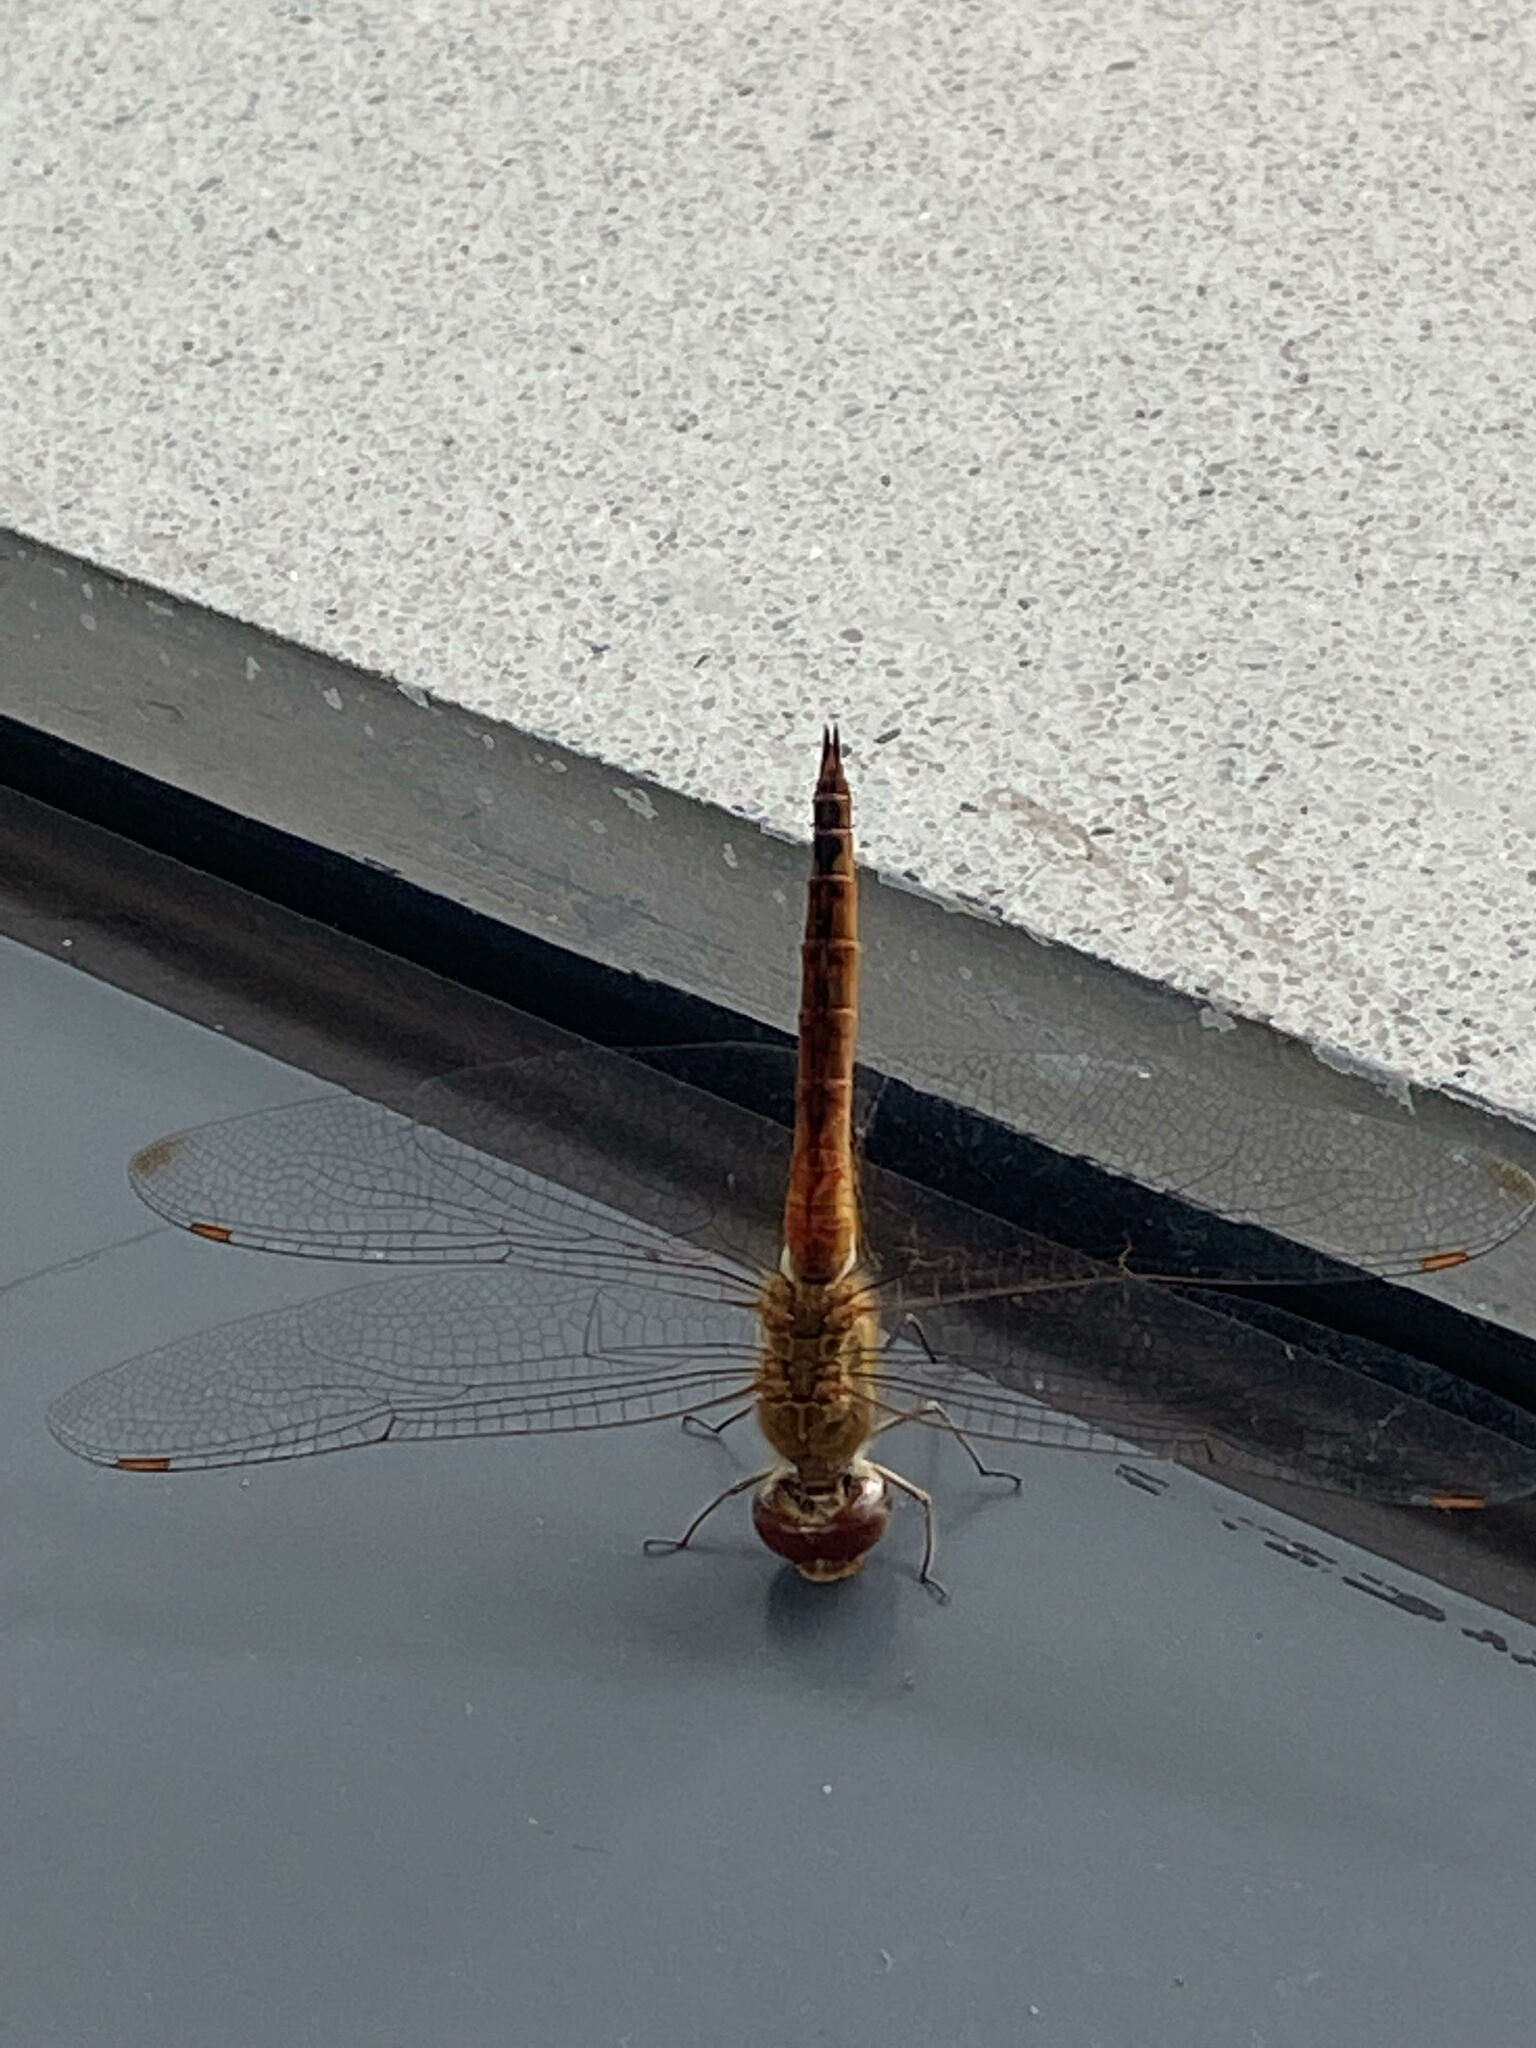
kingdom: Animalia
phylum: Arthropoda
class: Insecta
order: Odonata
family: Libellulidae
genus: Pantala
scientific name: Pantala flavescens
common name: Wandering glider
